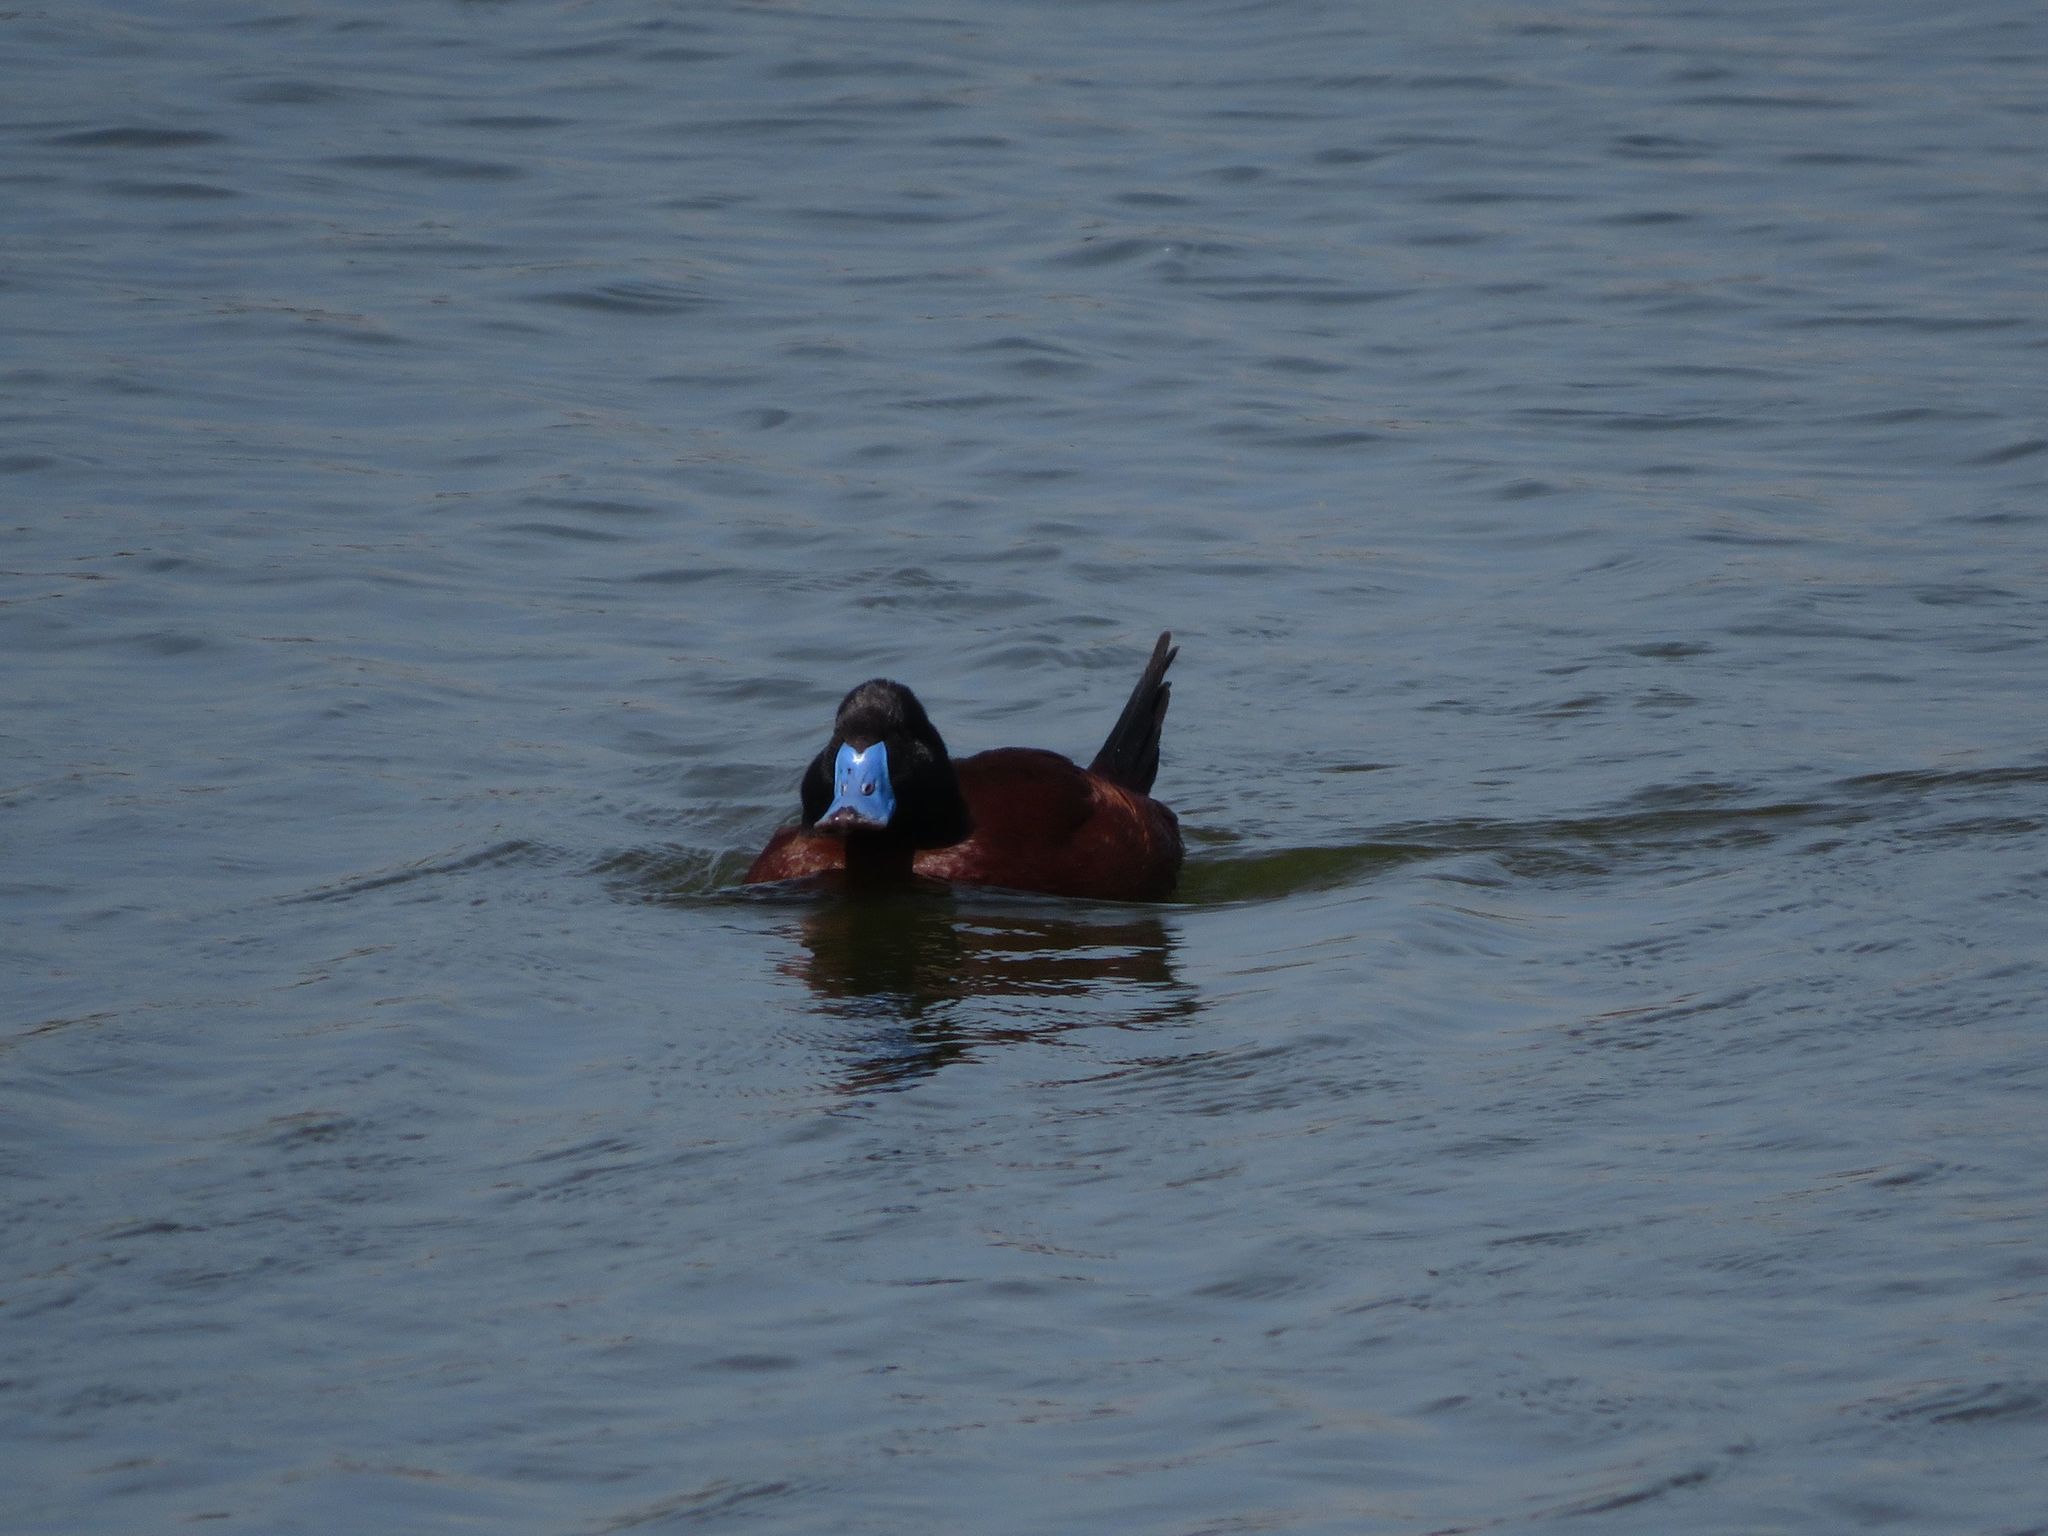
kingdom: Animalia
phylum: Chordata
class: Aves
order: Anseriformes
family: Anatidae
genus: Oxyura
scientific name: Oxyura vittata
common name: Lake duck
